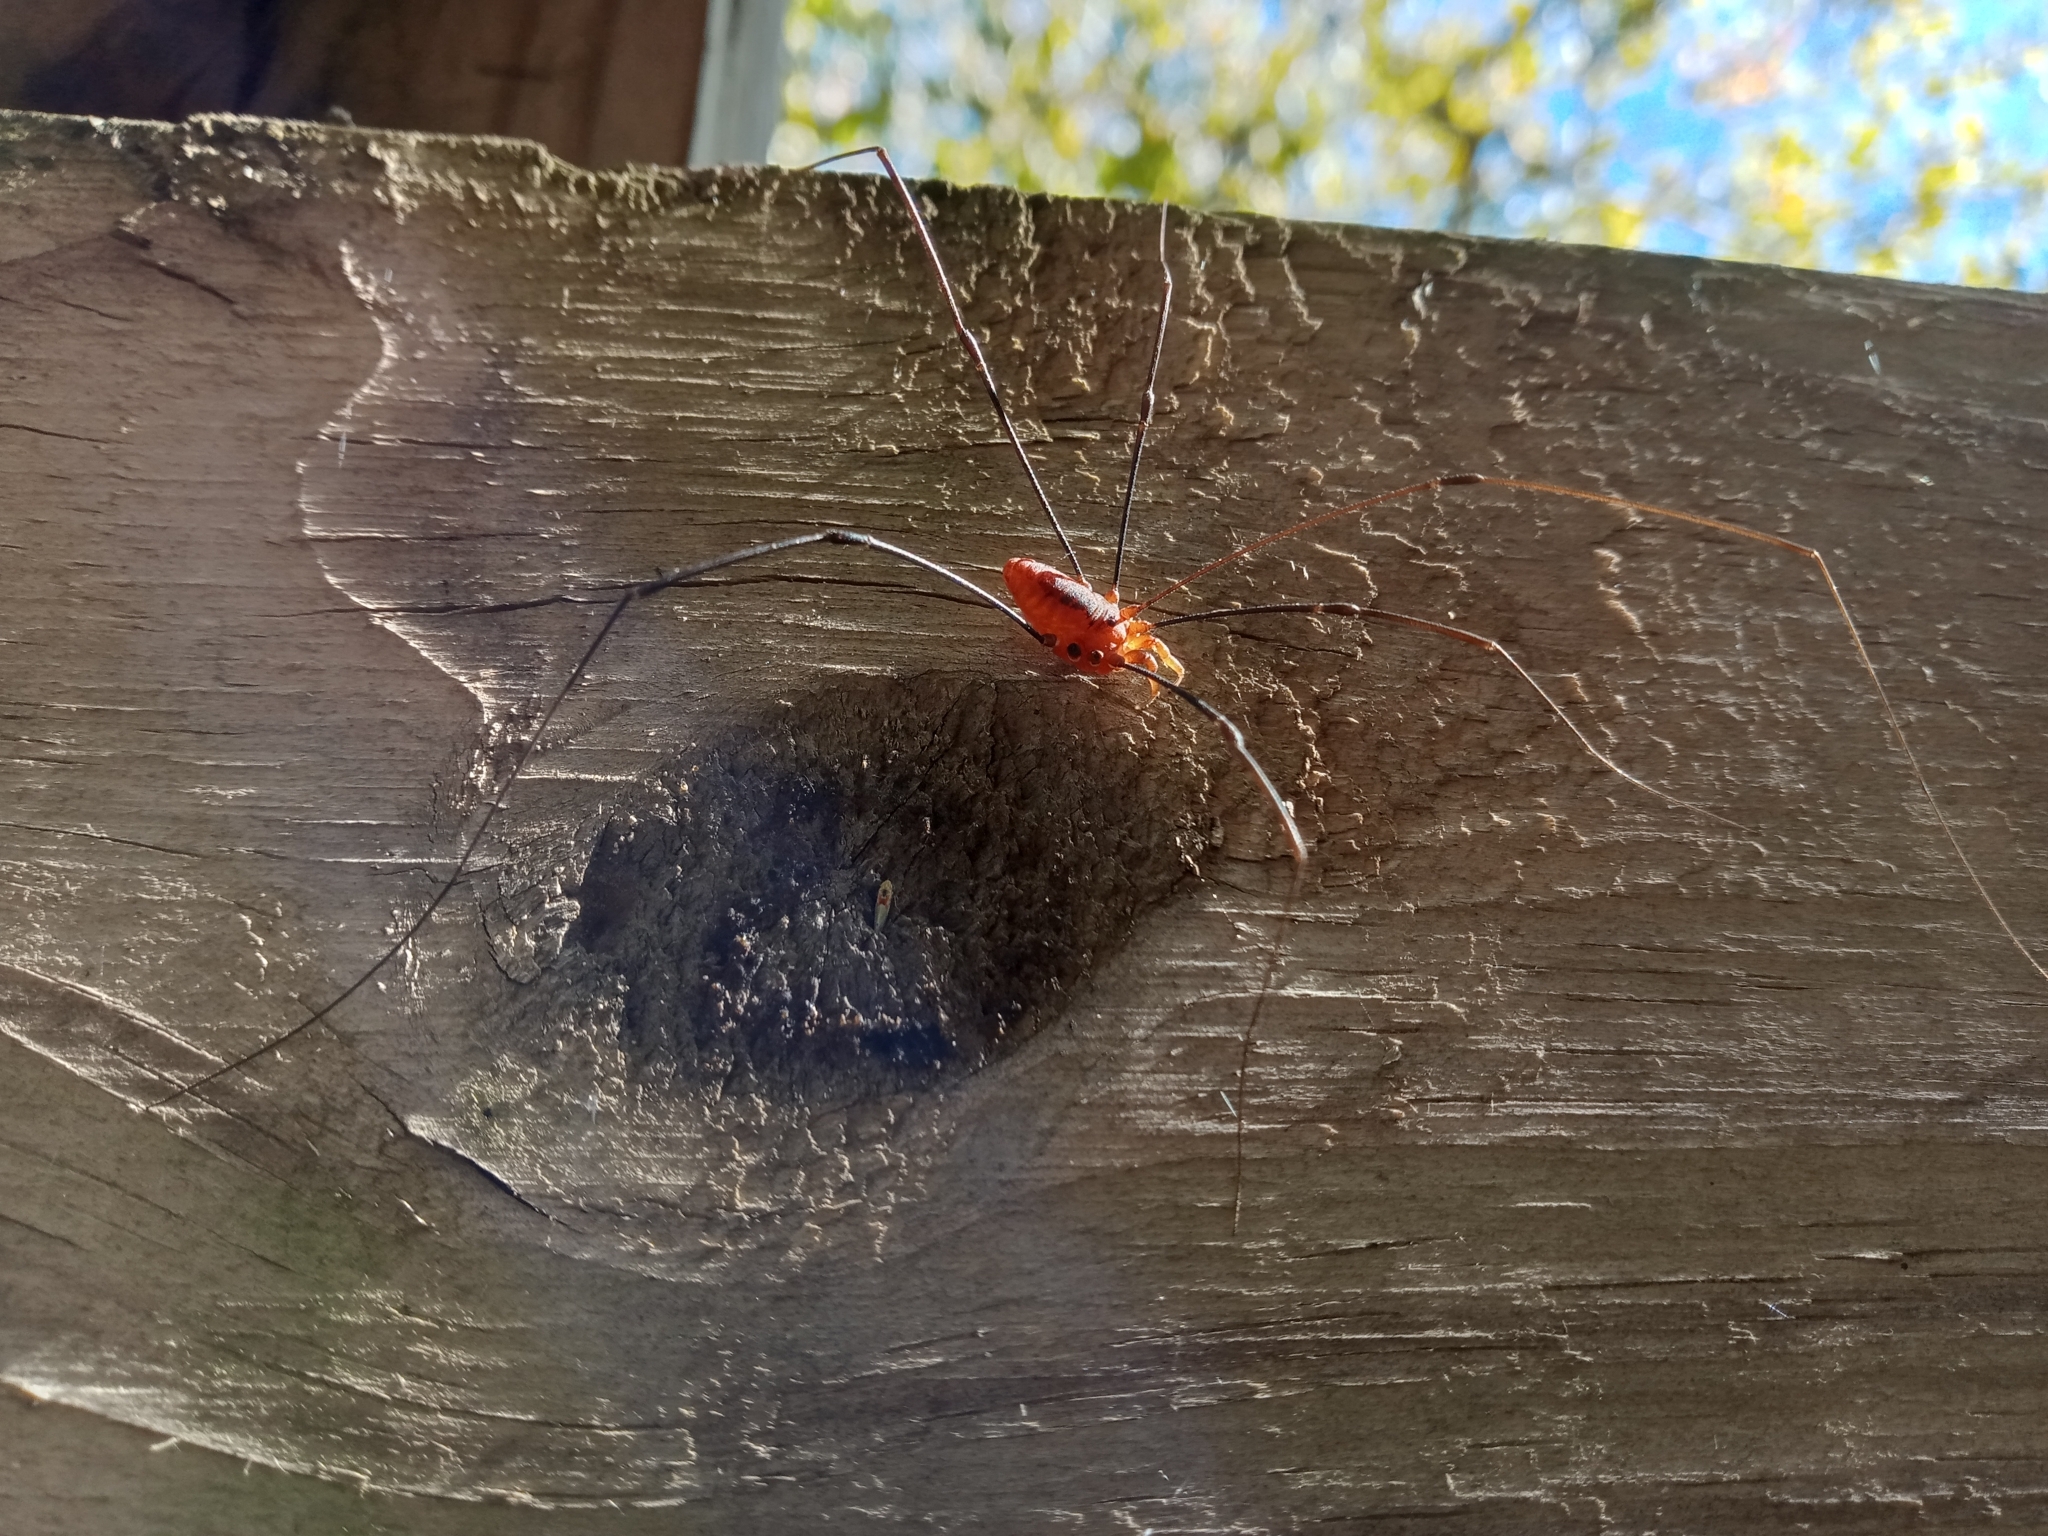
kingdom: Animalia
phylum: Arthropoda
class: Arachnida
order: Opiliones
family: Sclerosomatidae
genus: Leiobunum
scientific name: Leiobunum crassipalpe
